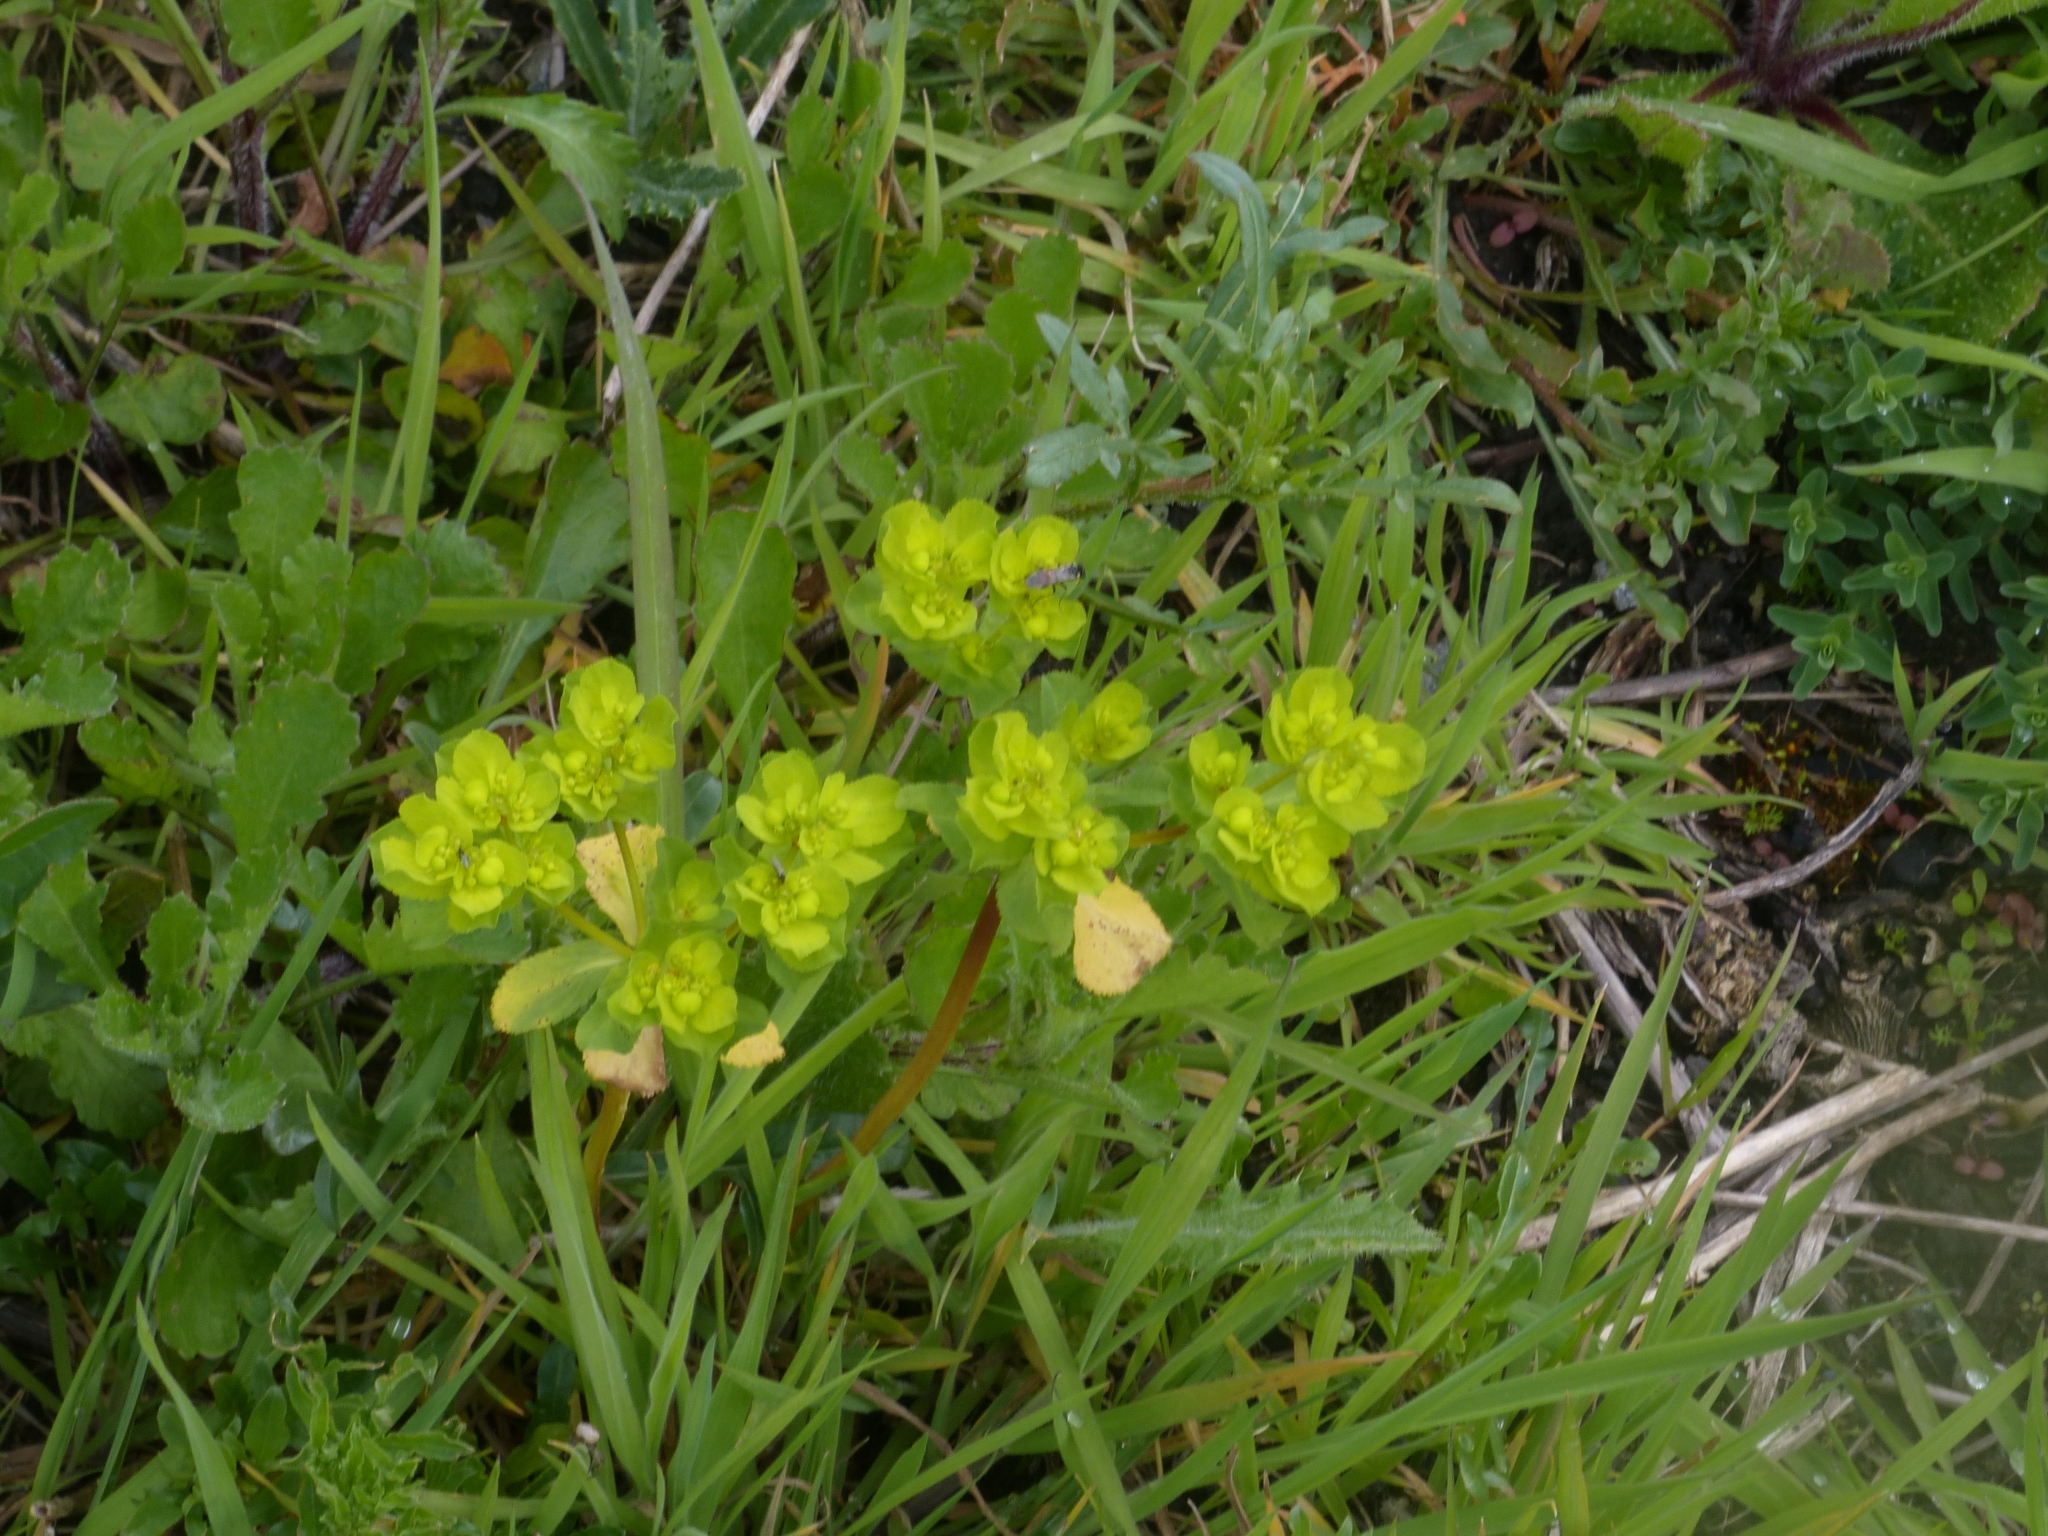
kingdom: Plantae
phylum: Tracheophyta
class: Magnoliopsida
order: Malpighiales
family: Euphorbiaceae
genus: Euphorbia
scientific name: Euphorbia helioscopia
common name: Sun spurge
